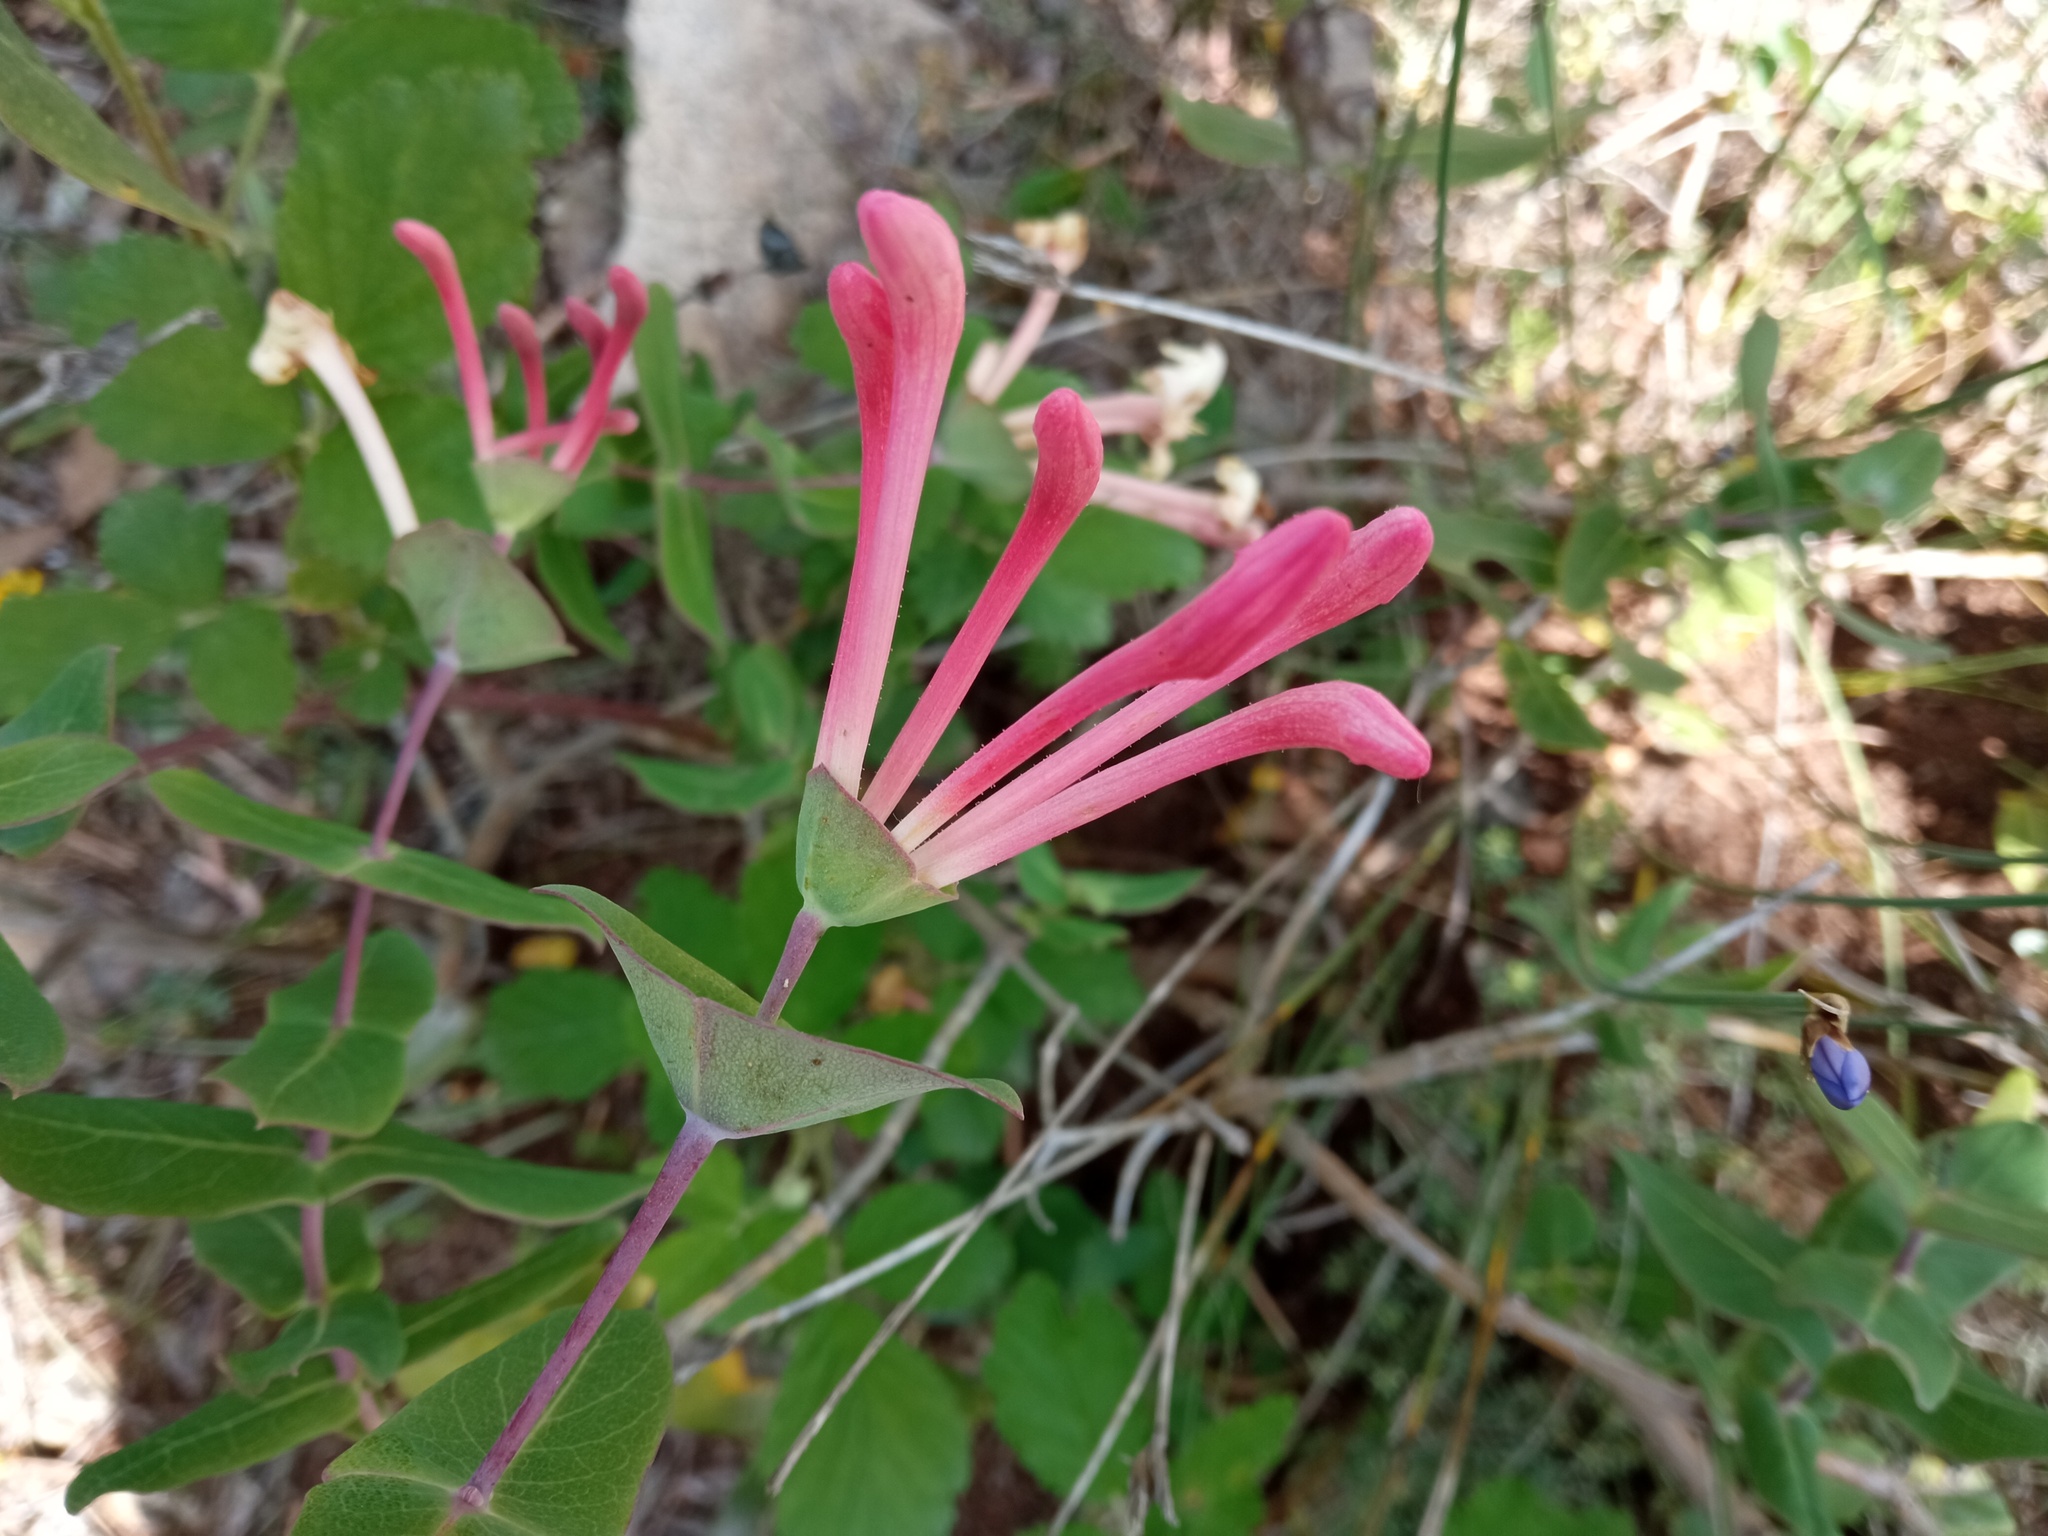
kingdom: Plantae
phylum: Tracheophyta
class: Magnoliopsida
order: Dipsacales
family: Caprifoliaceae
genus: Lonicera
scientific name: Lonicera implexa
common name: Minorca honeysuckle
